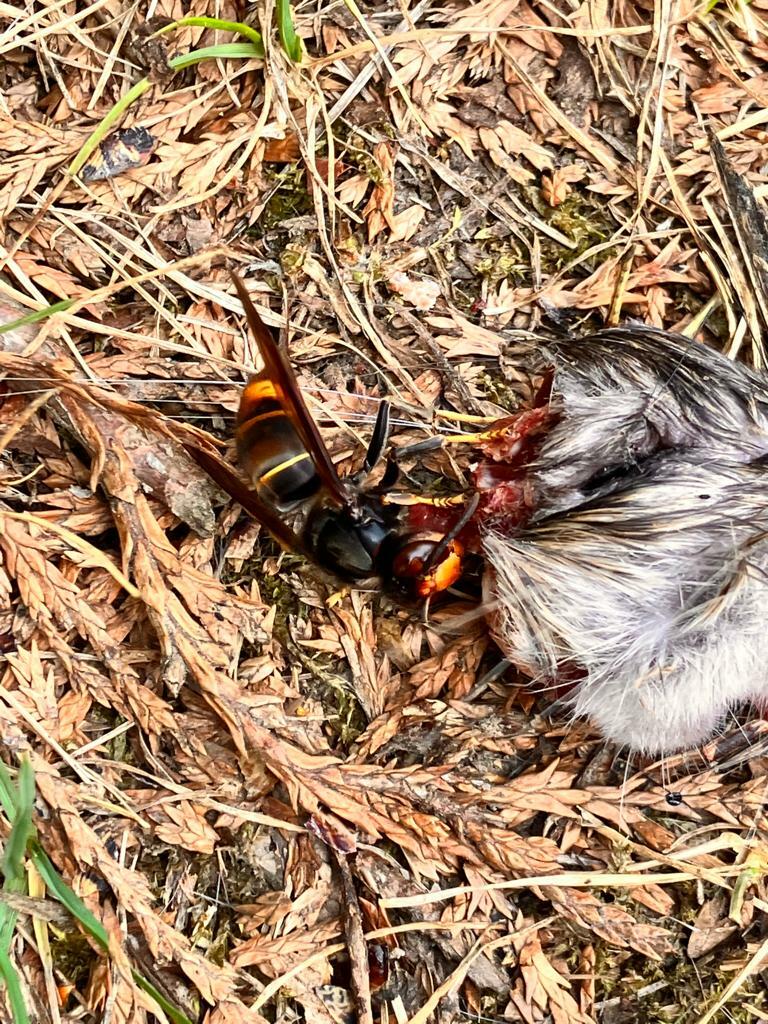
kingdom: Animalia
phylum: Arthropoda
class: Insecta
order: Hymenoptera
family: Vespidae
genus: Vespa
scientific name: Vespa velutina
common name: Asian hornet
